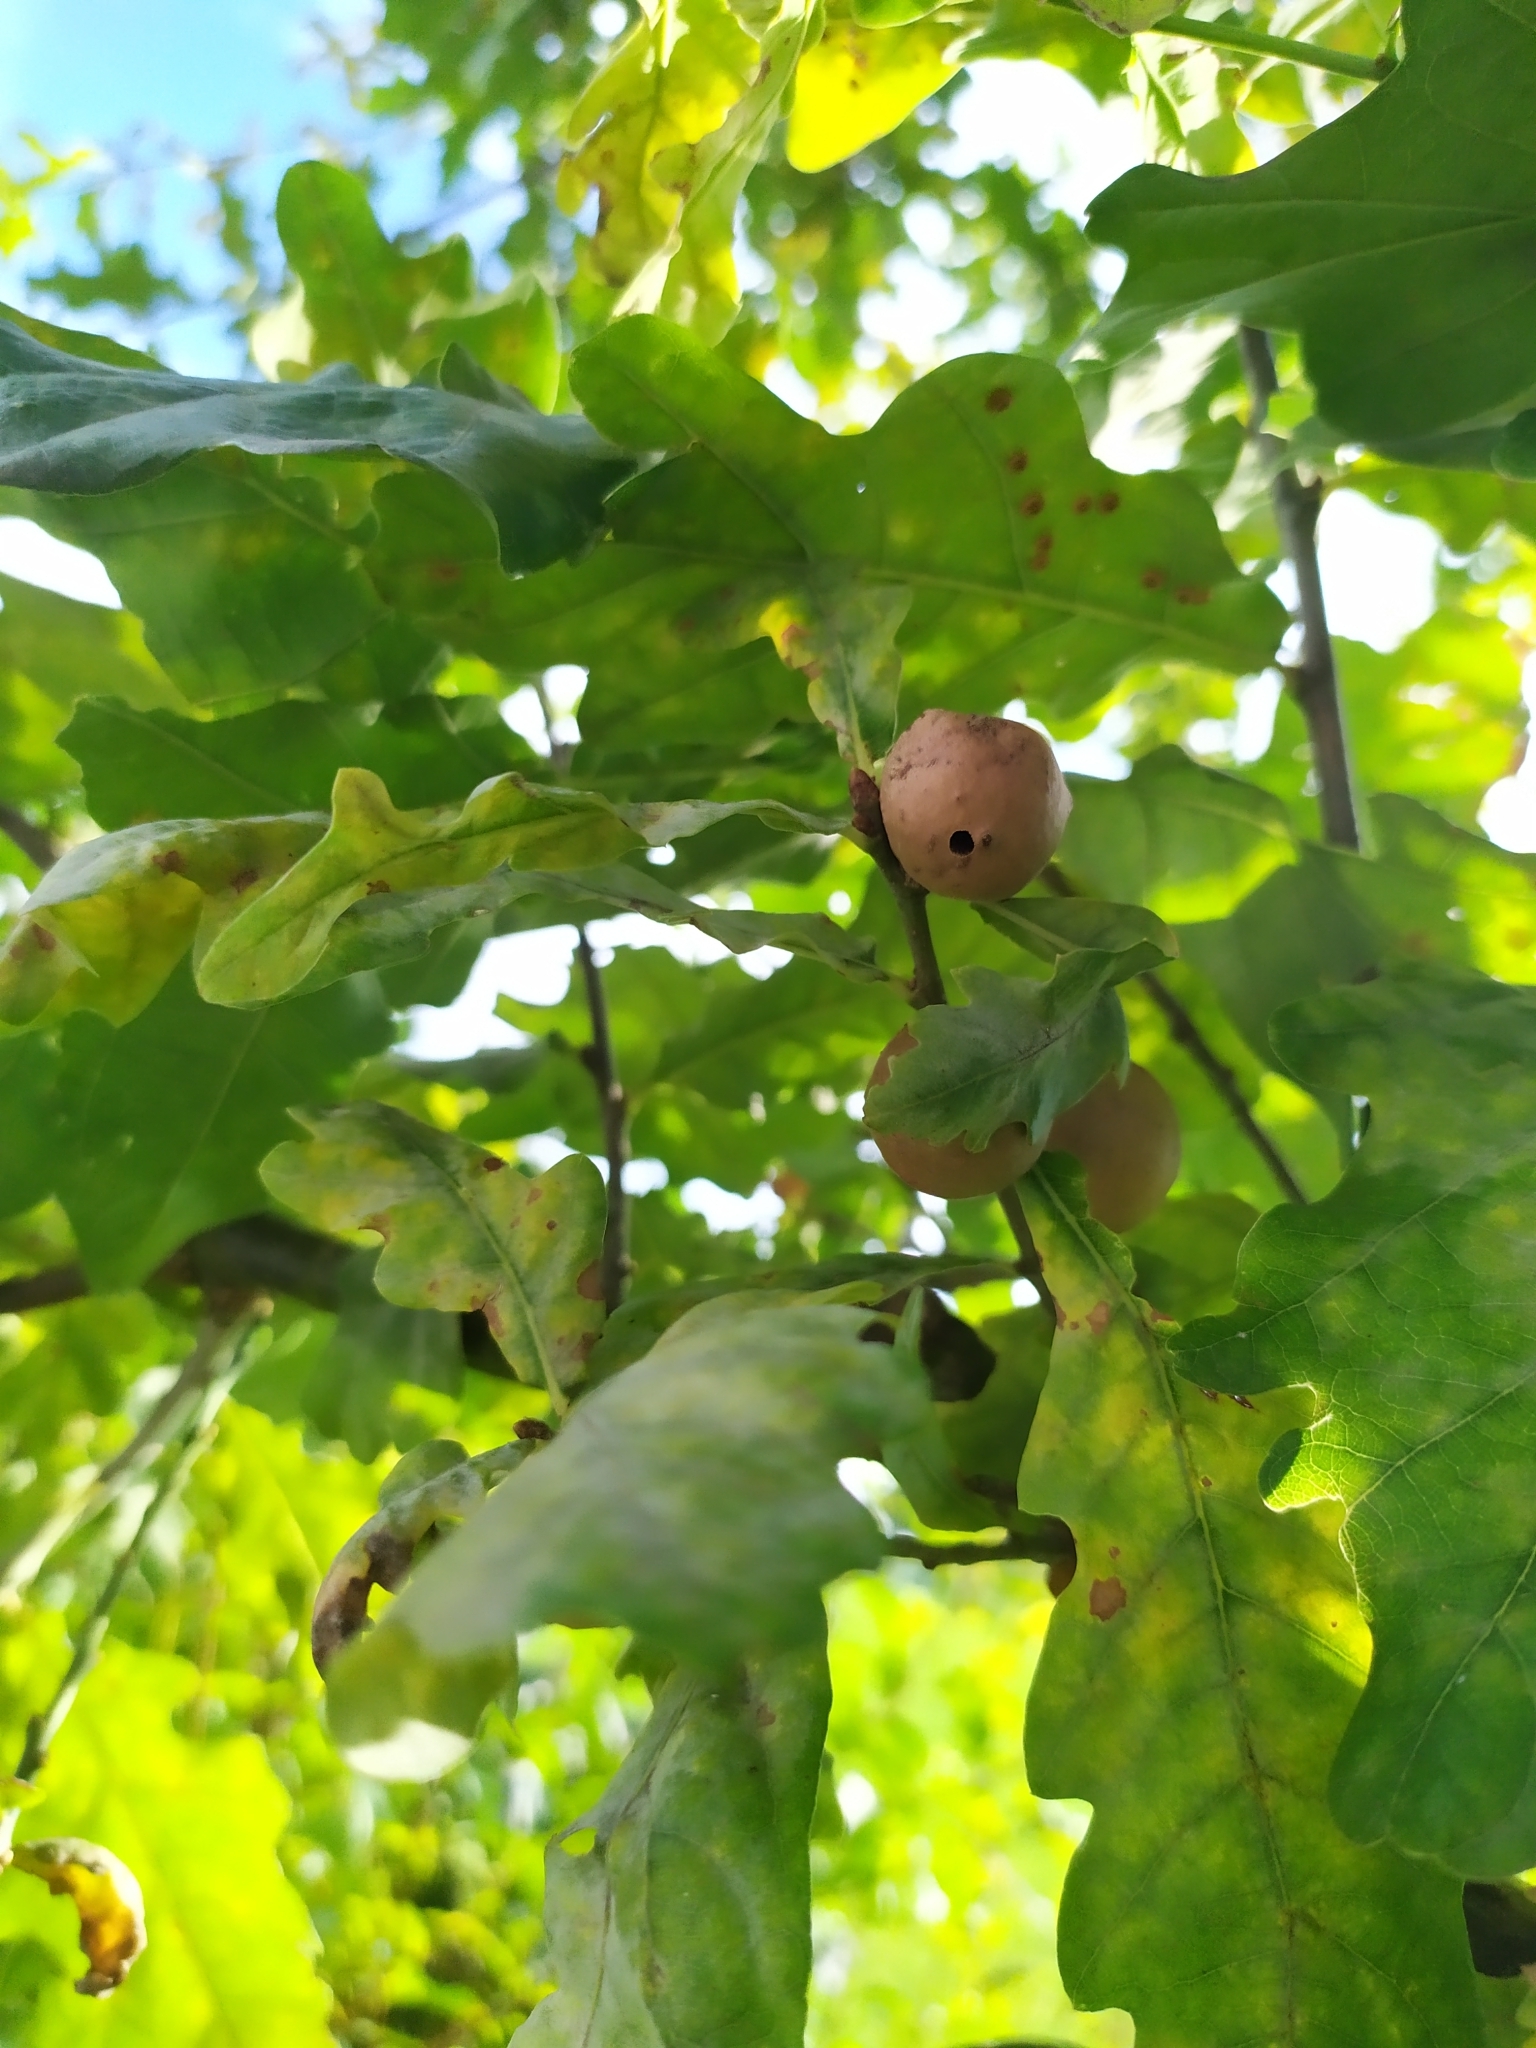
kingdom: Animalia
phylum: Arthropoda
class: Insecta
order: Hymenoptera
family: Cynipidae
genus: Andricus
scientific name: Andricus kollari
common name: Marble gall
